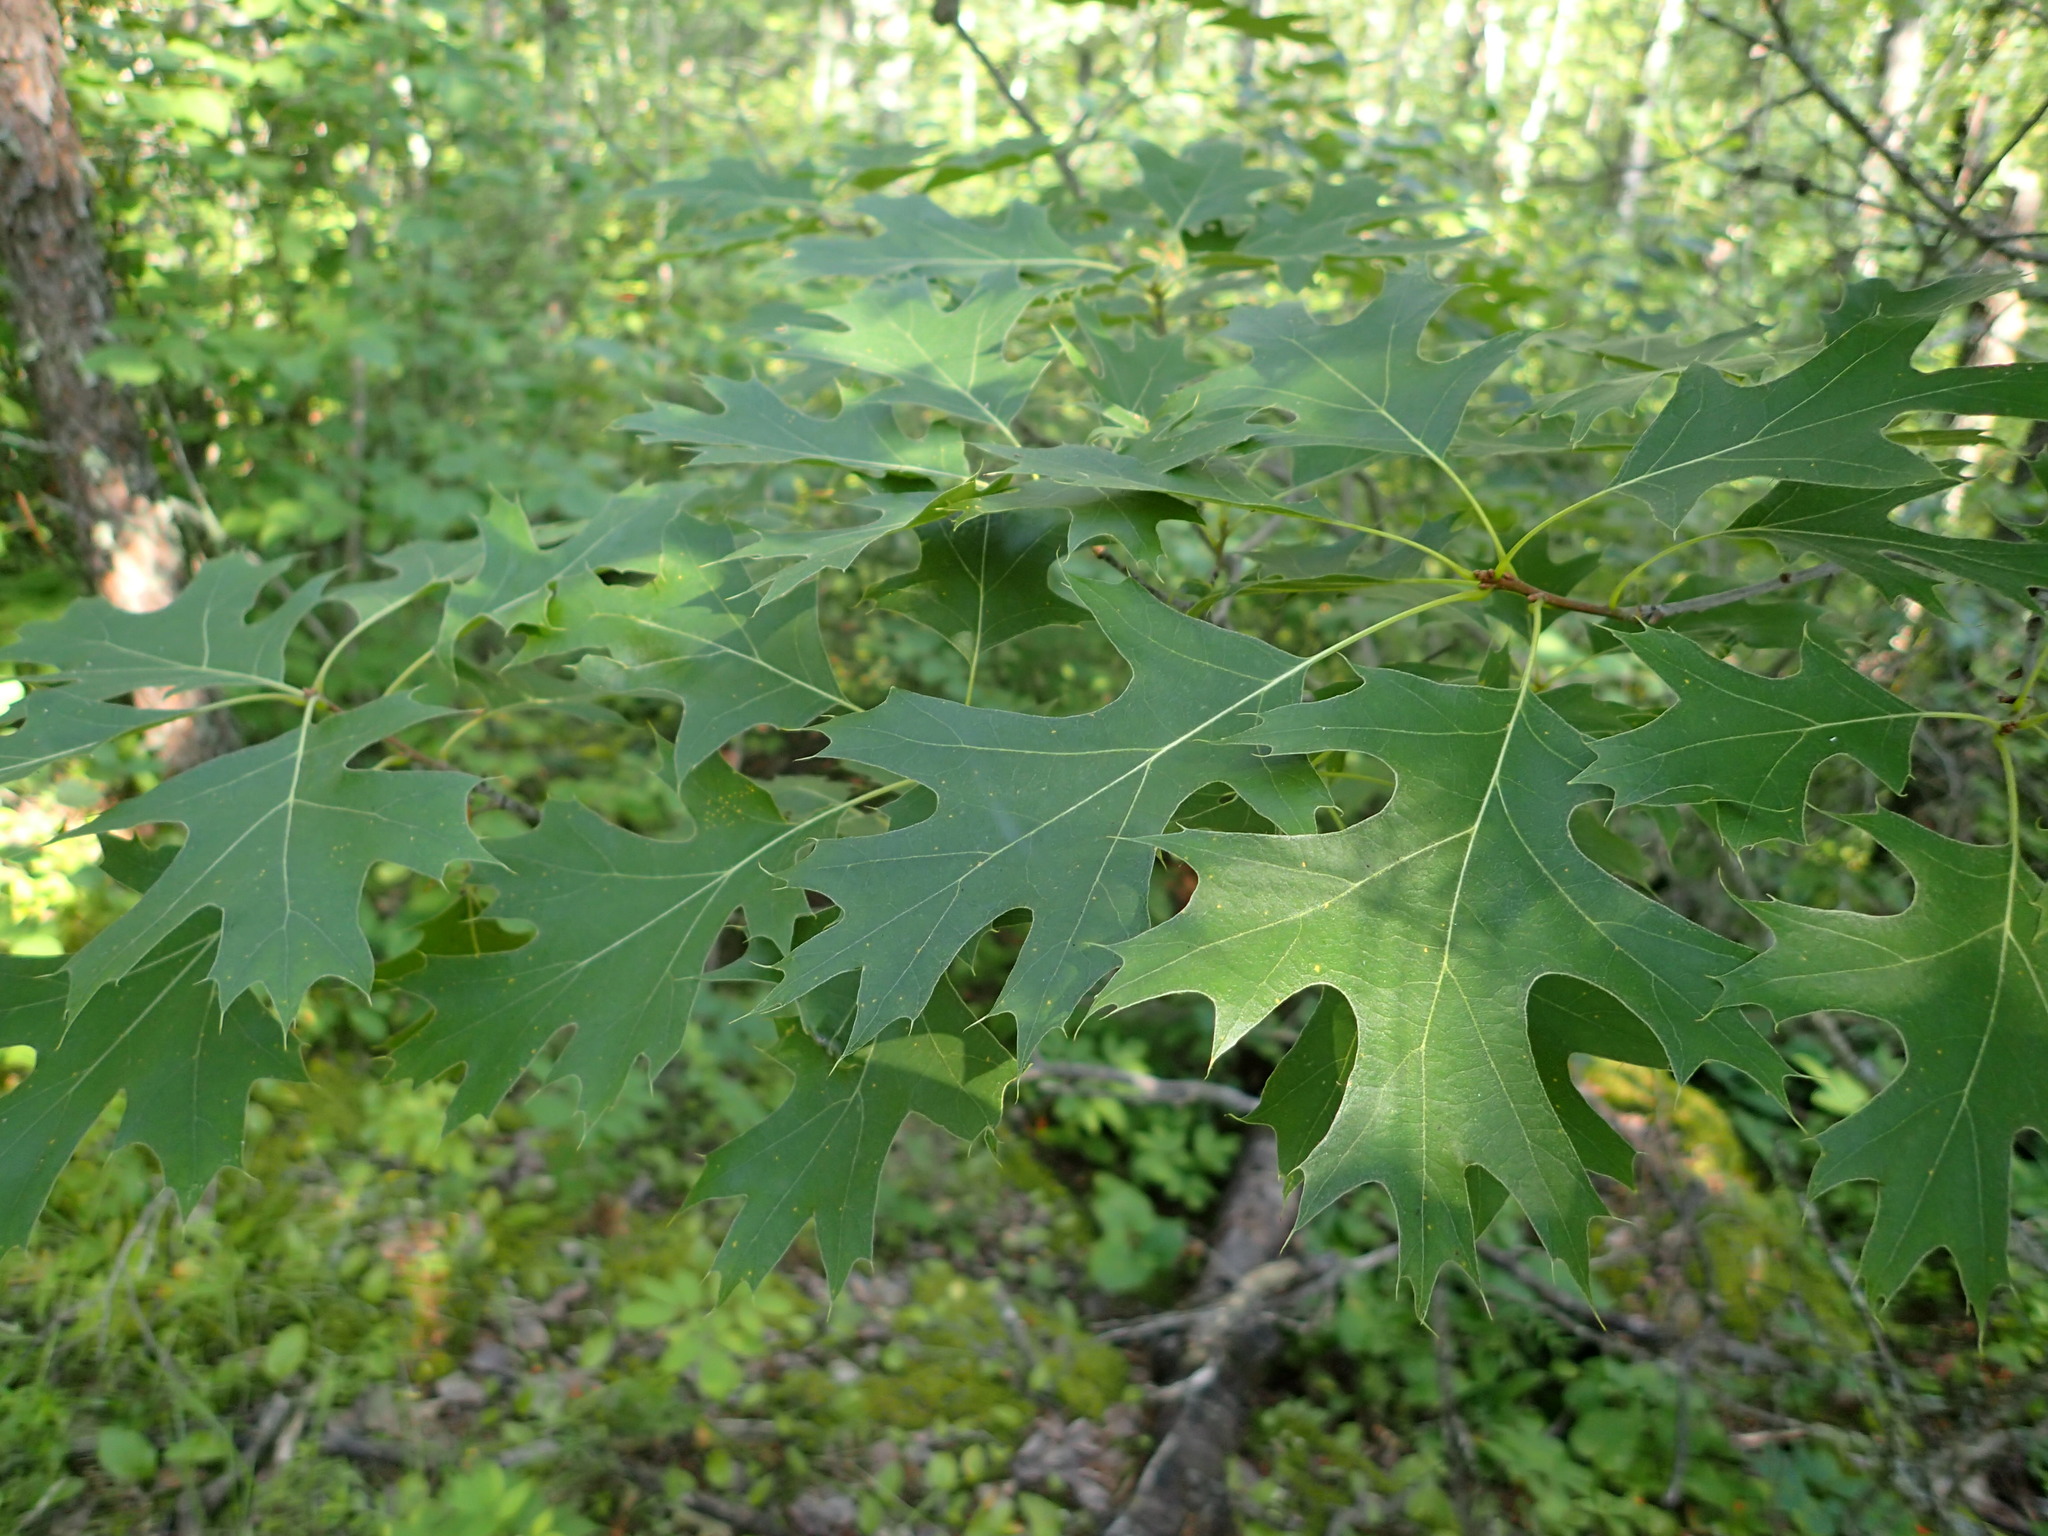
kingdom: Plantae
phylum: Tracheophyta
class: Magnoliopsida
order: Fagales
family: Fagaceae
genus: Quercus
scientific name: Quercus ellipsoidalis
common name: Hill's oak
